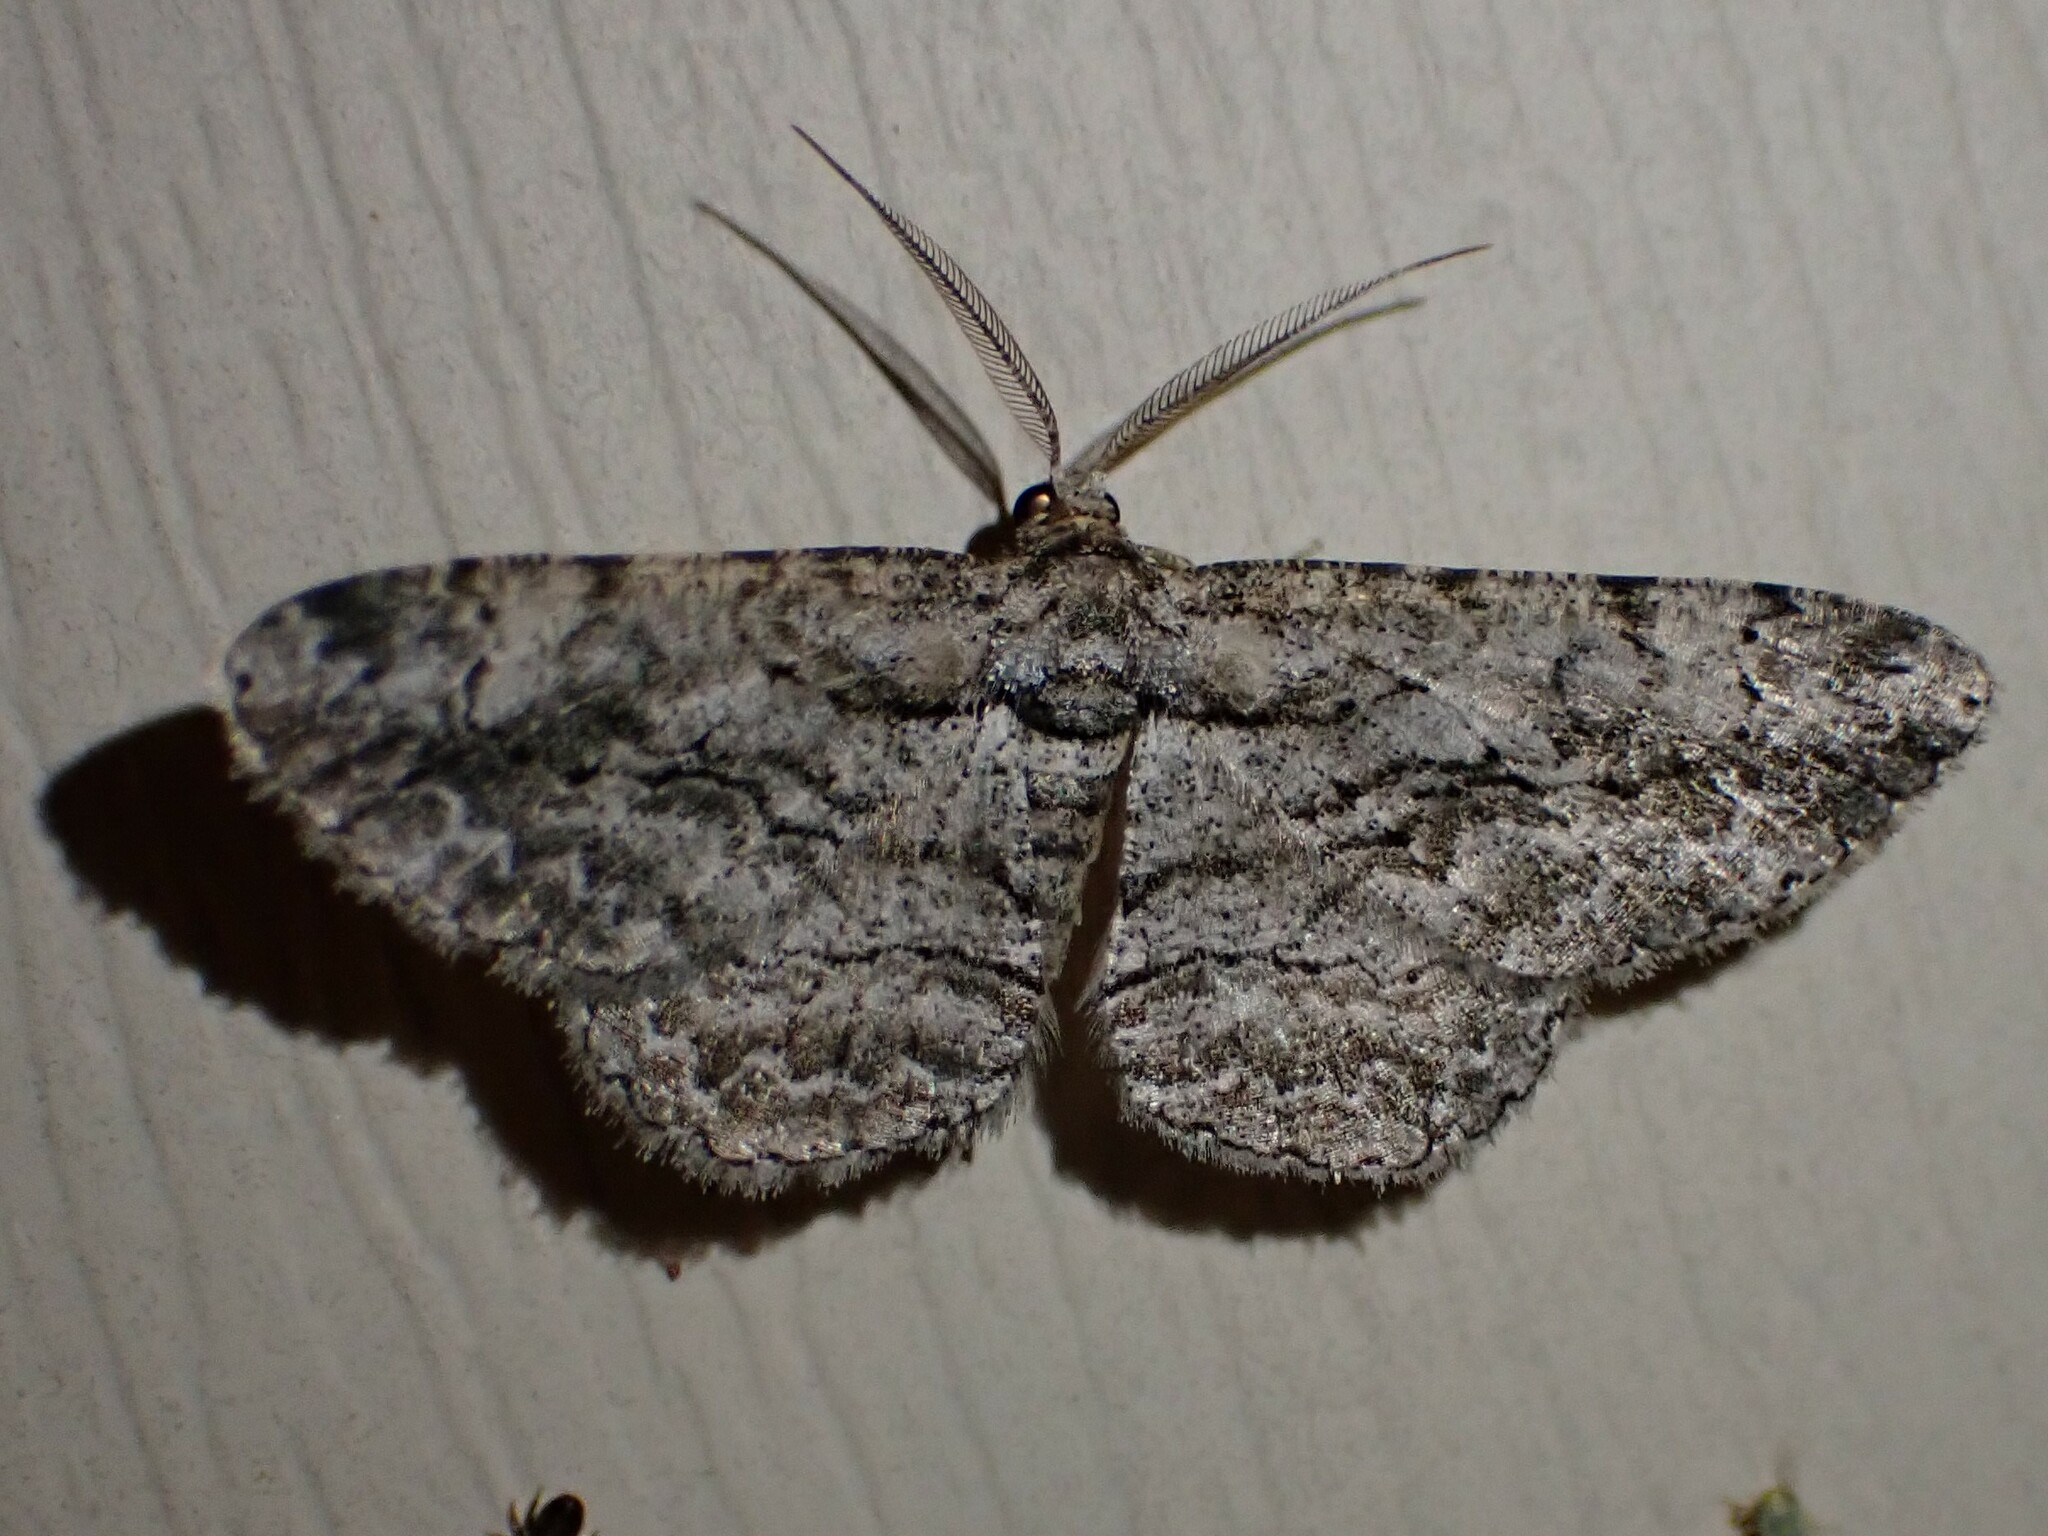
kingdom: Animalia
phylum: Arthropoda
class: Insecta
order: Lepidoptera
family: Geometridae
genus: Anavitrinella
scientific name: Anavitrinella pampinaria
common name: Common gray
